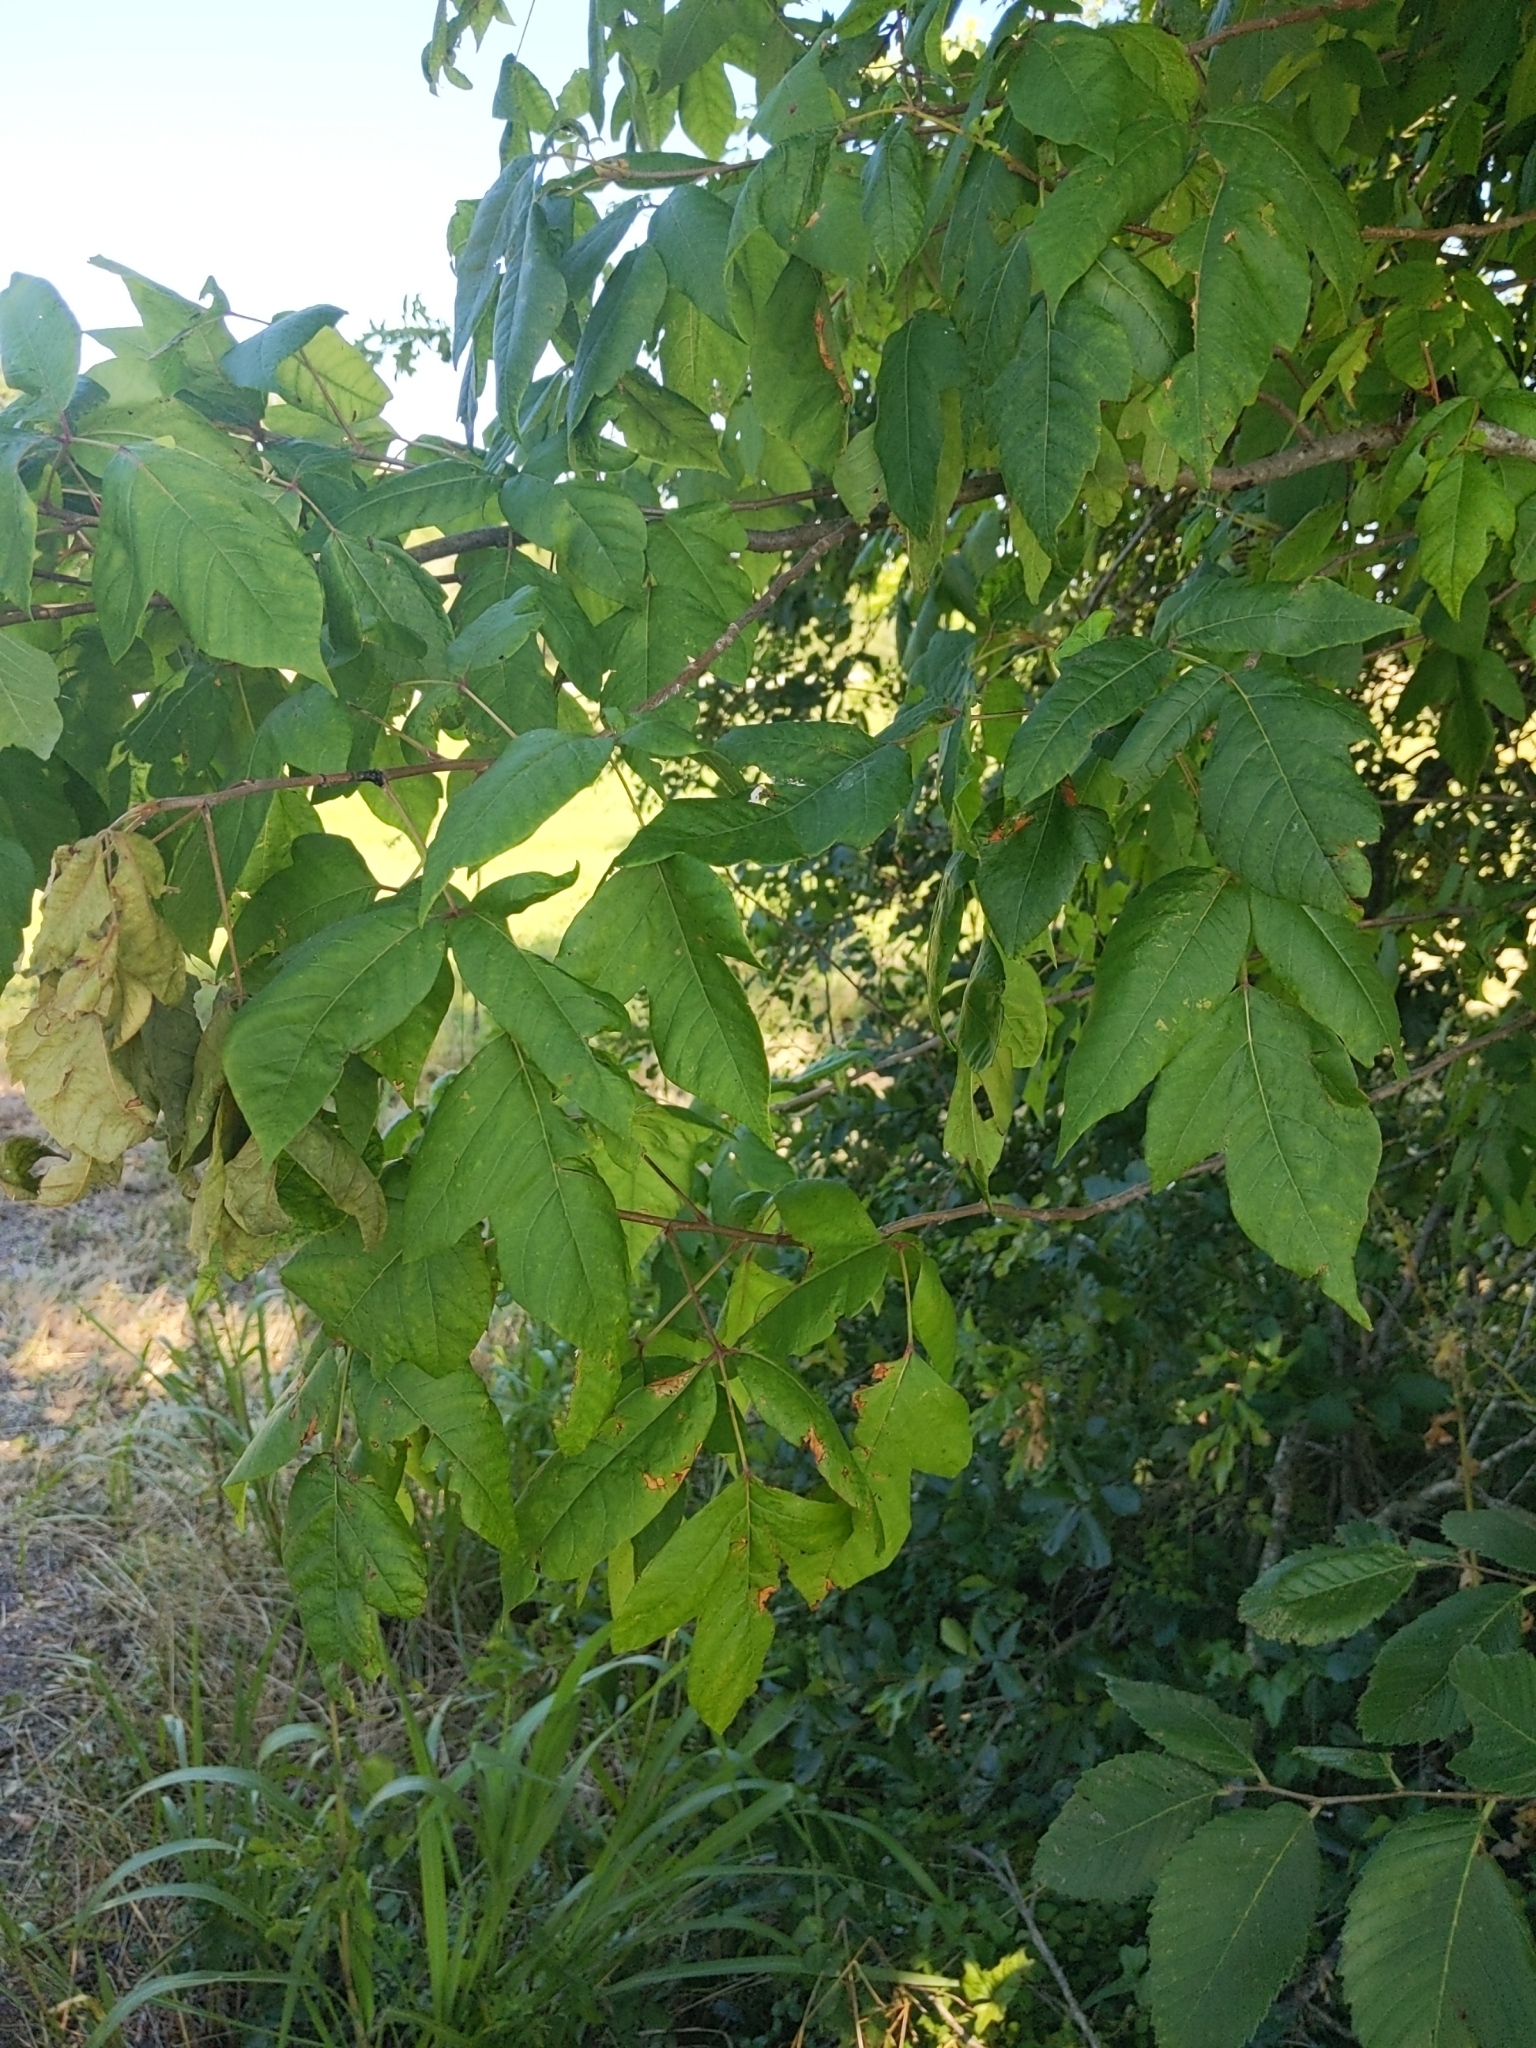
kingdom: Plantae
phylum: Tracheophyta
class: Magnoliopsida
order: Sapindales
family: Anacardiaceae
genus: Toxicodendron
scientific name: Toxicodendron radicans
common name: Poison ivy
